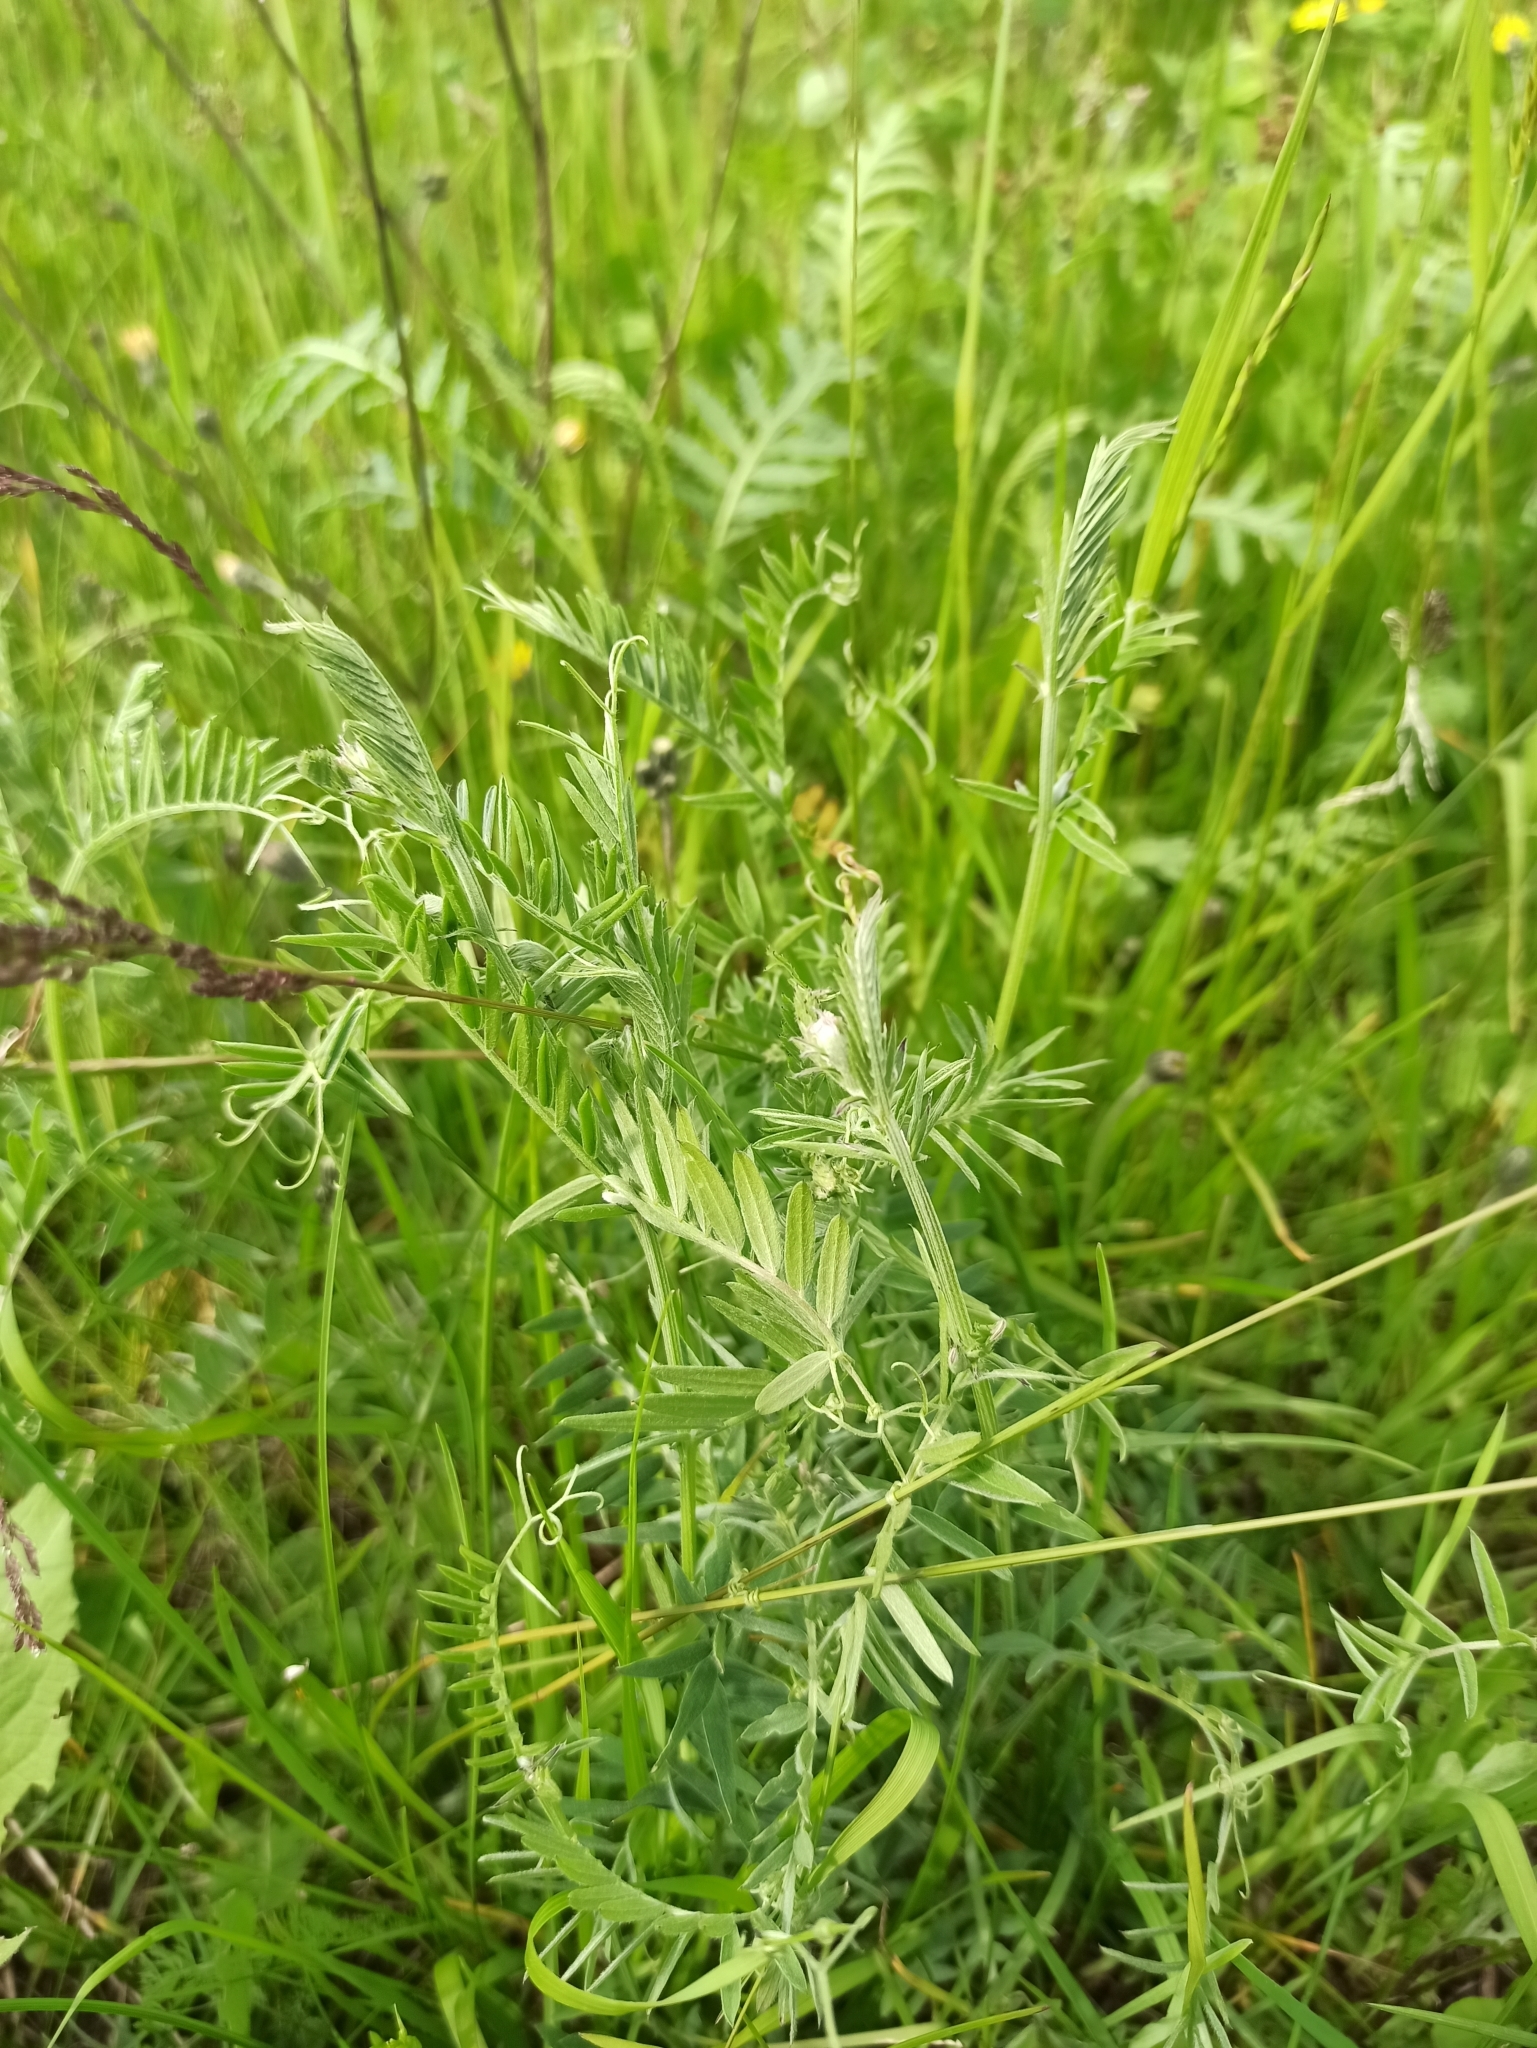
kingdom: Plantae
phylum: Tracheophyta
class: Magnoliopsida
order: Fabales
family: Fabaceae
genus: Vicia
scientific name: Vicia cracca
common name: Bird vetch
